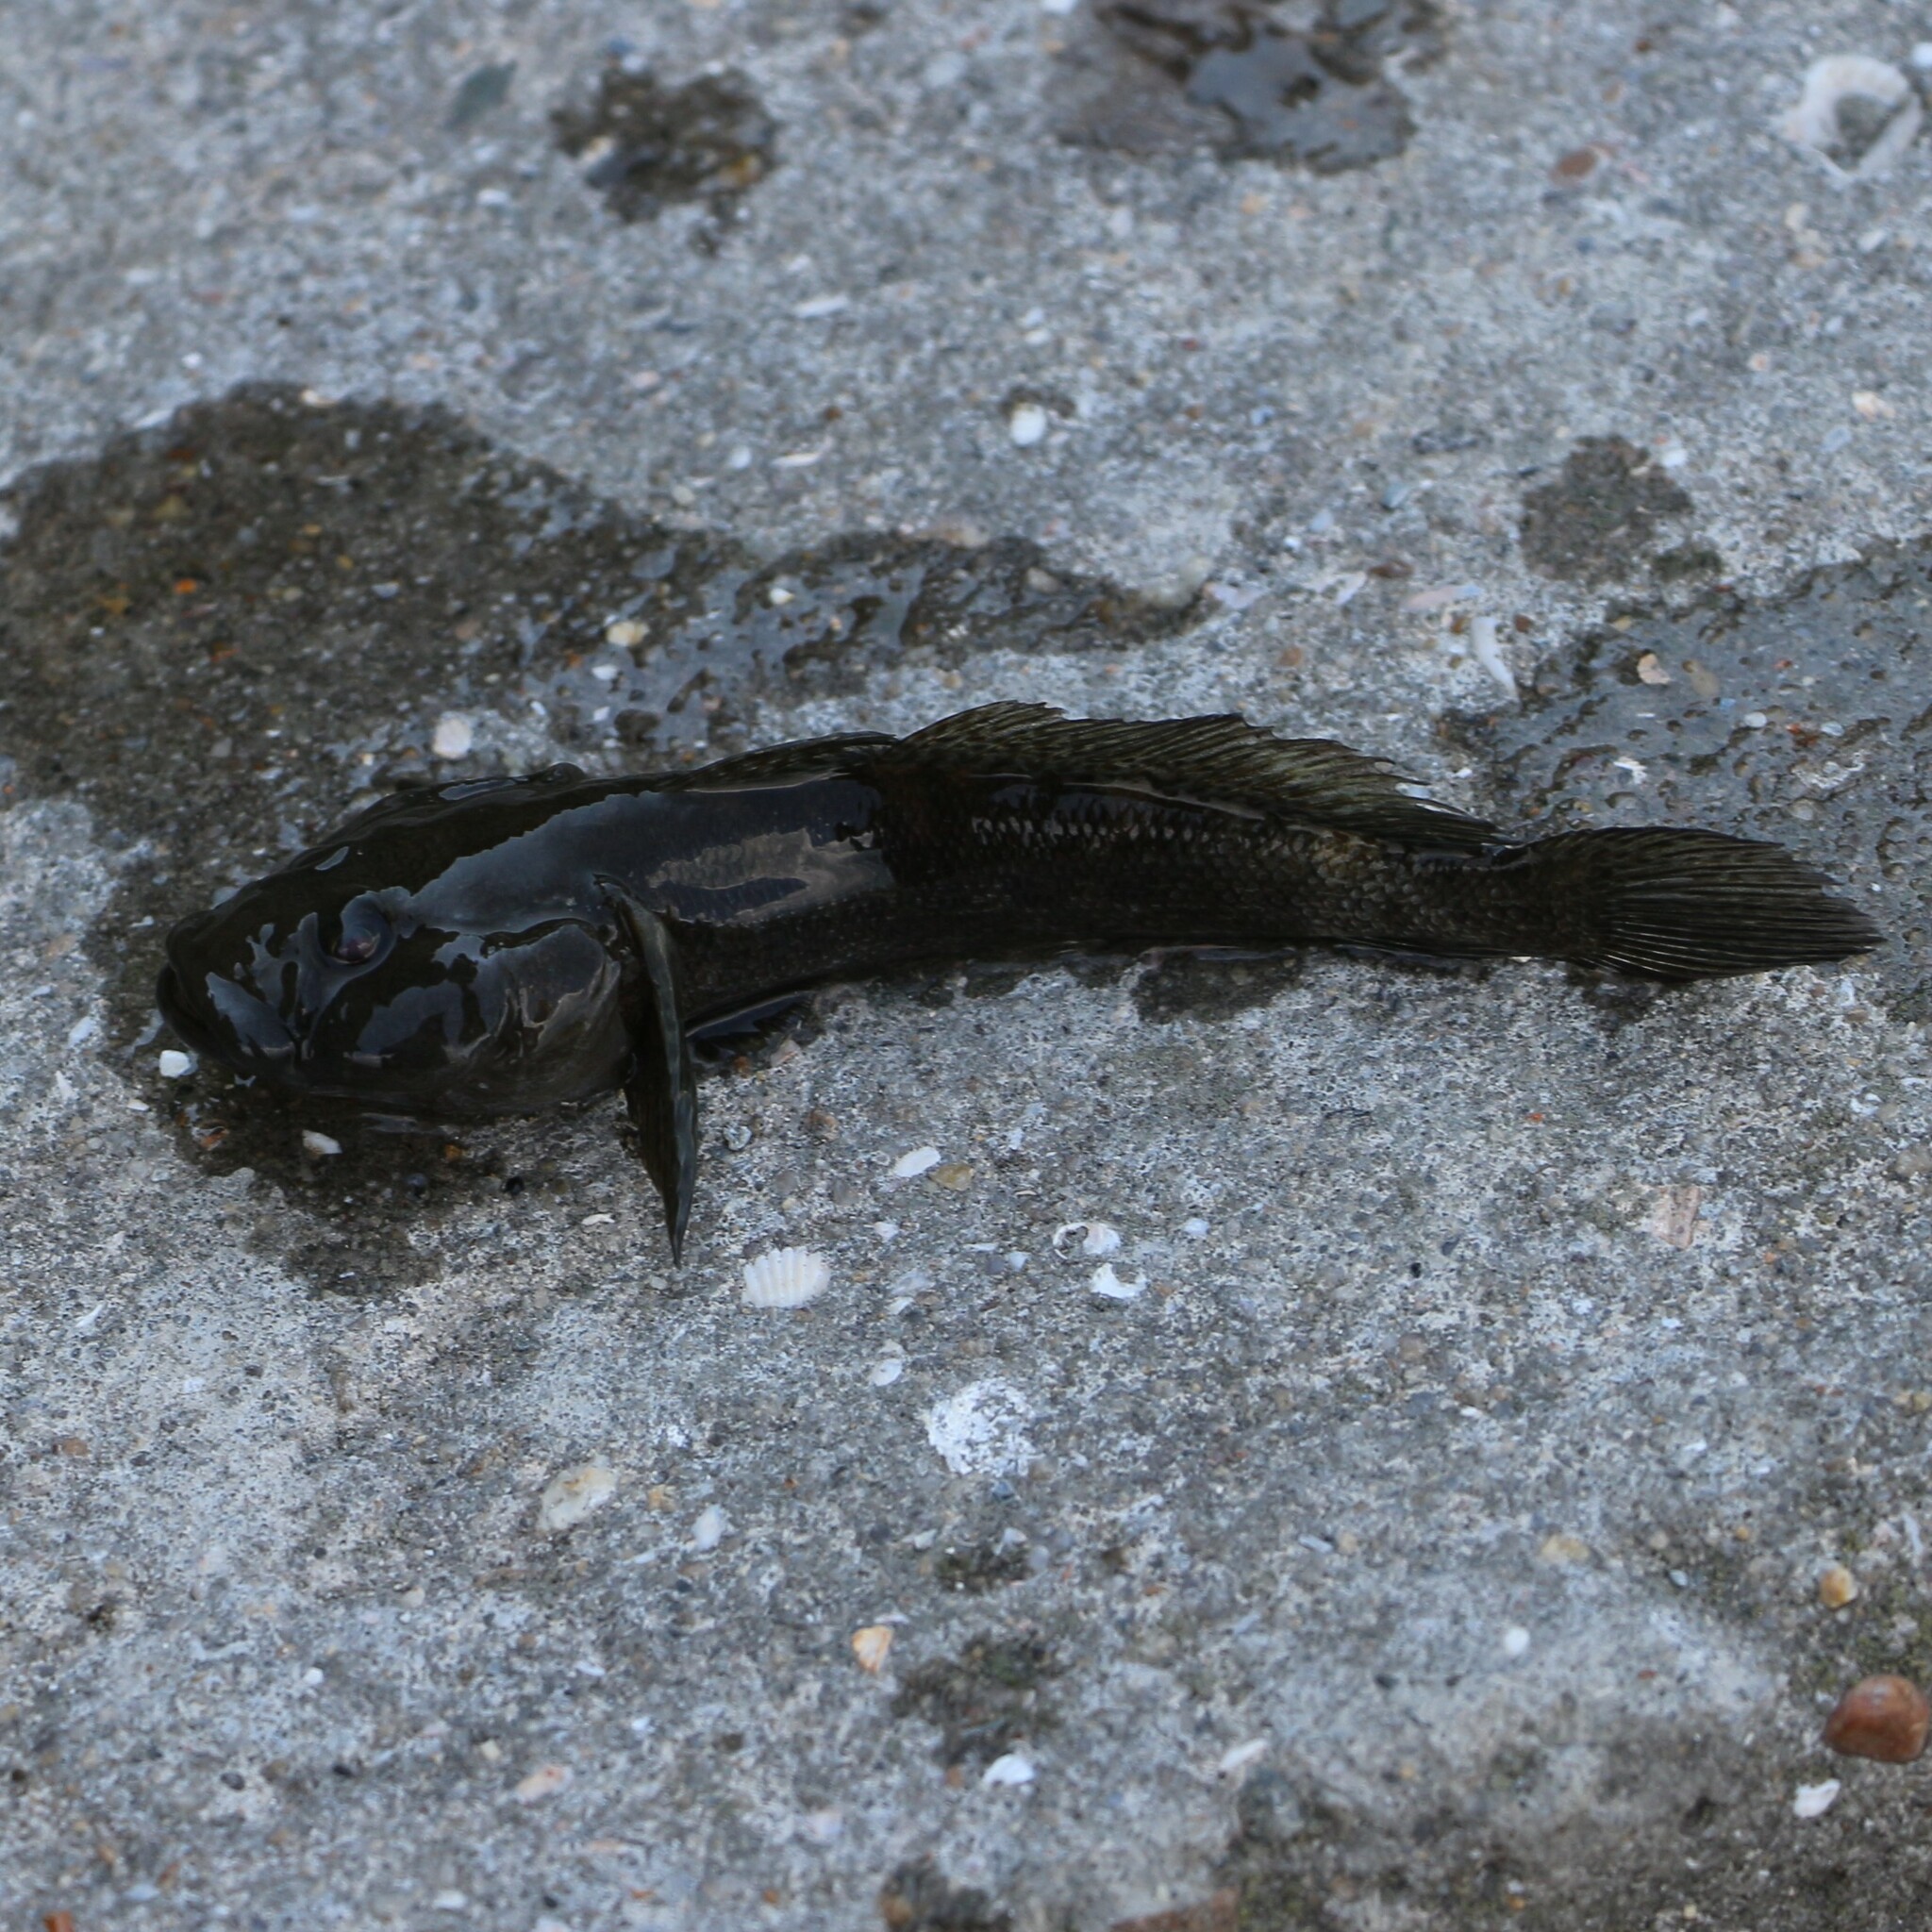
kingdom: Animalia
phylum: Chordata
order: Perciformes
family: Gobiidae
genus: Neogobius
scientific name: Neogobius melanostomus
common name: Round goby
